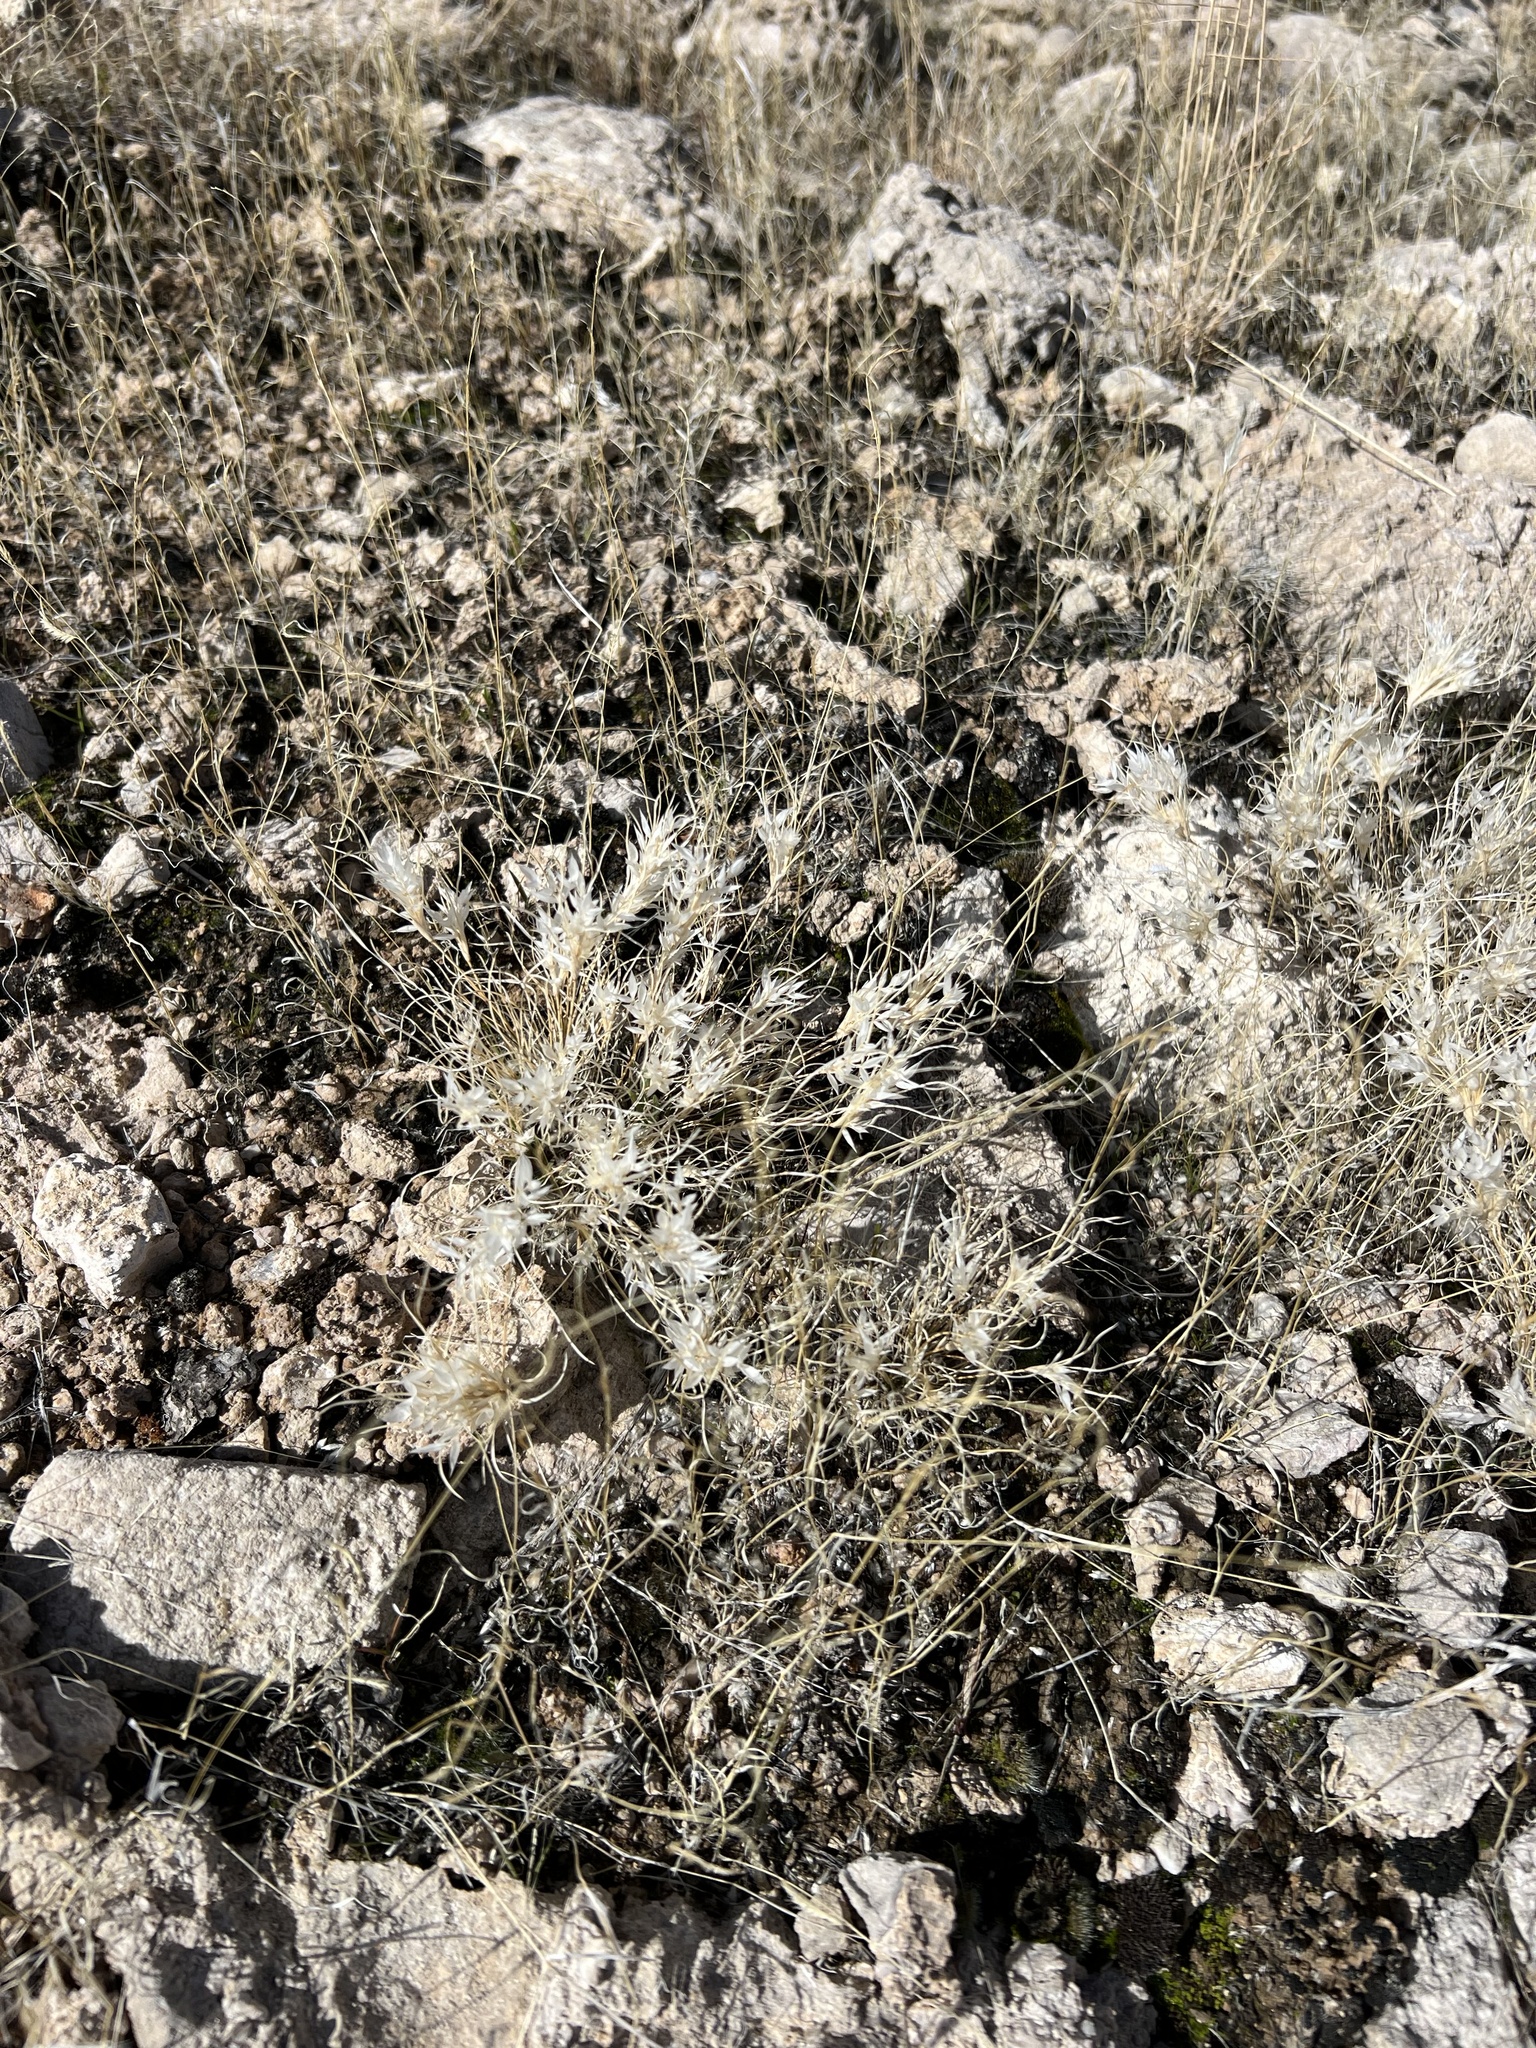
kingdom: Plantae
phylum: Tracheophyta
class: Liliopsida
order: Poales
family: Poaceae
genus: Dasyochloa
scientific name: Dasyochloa pulchella
